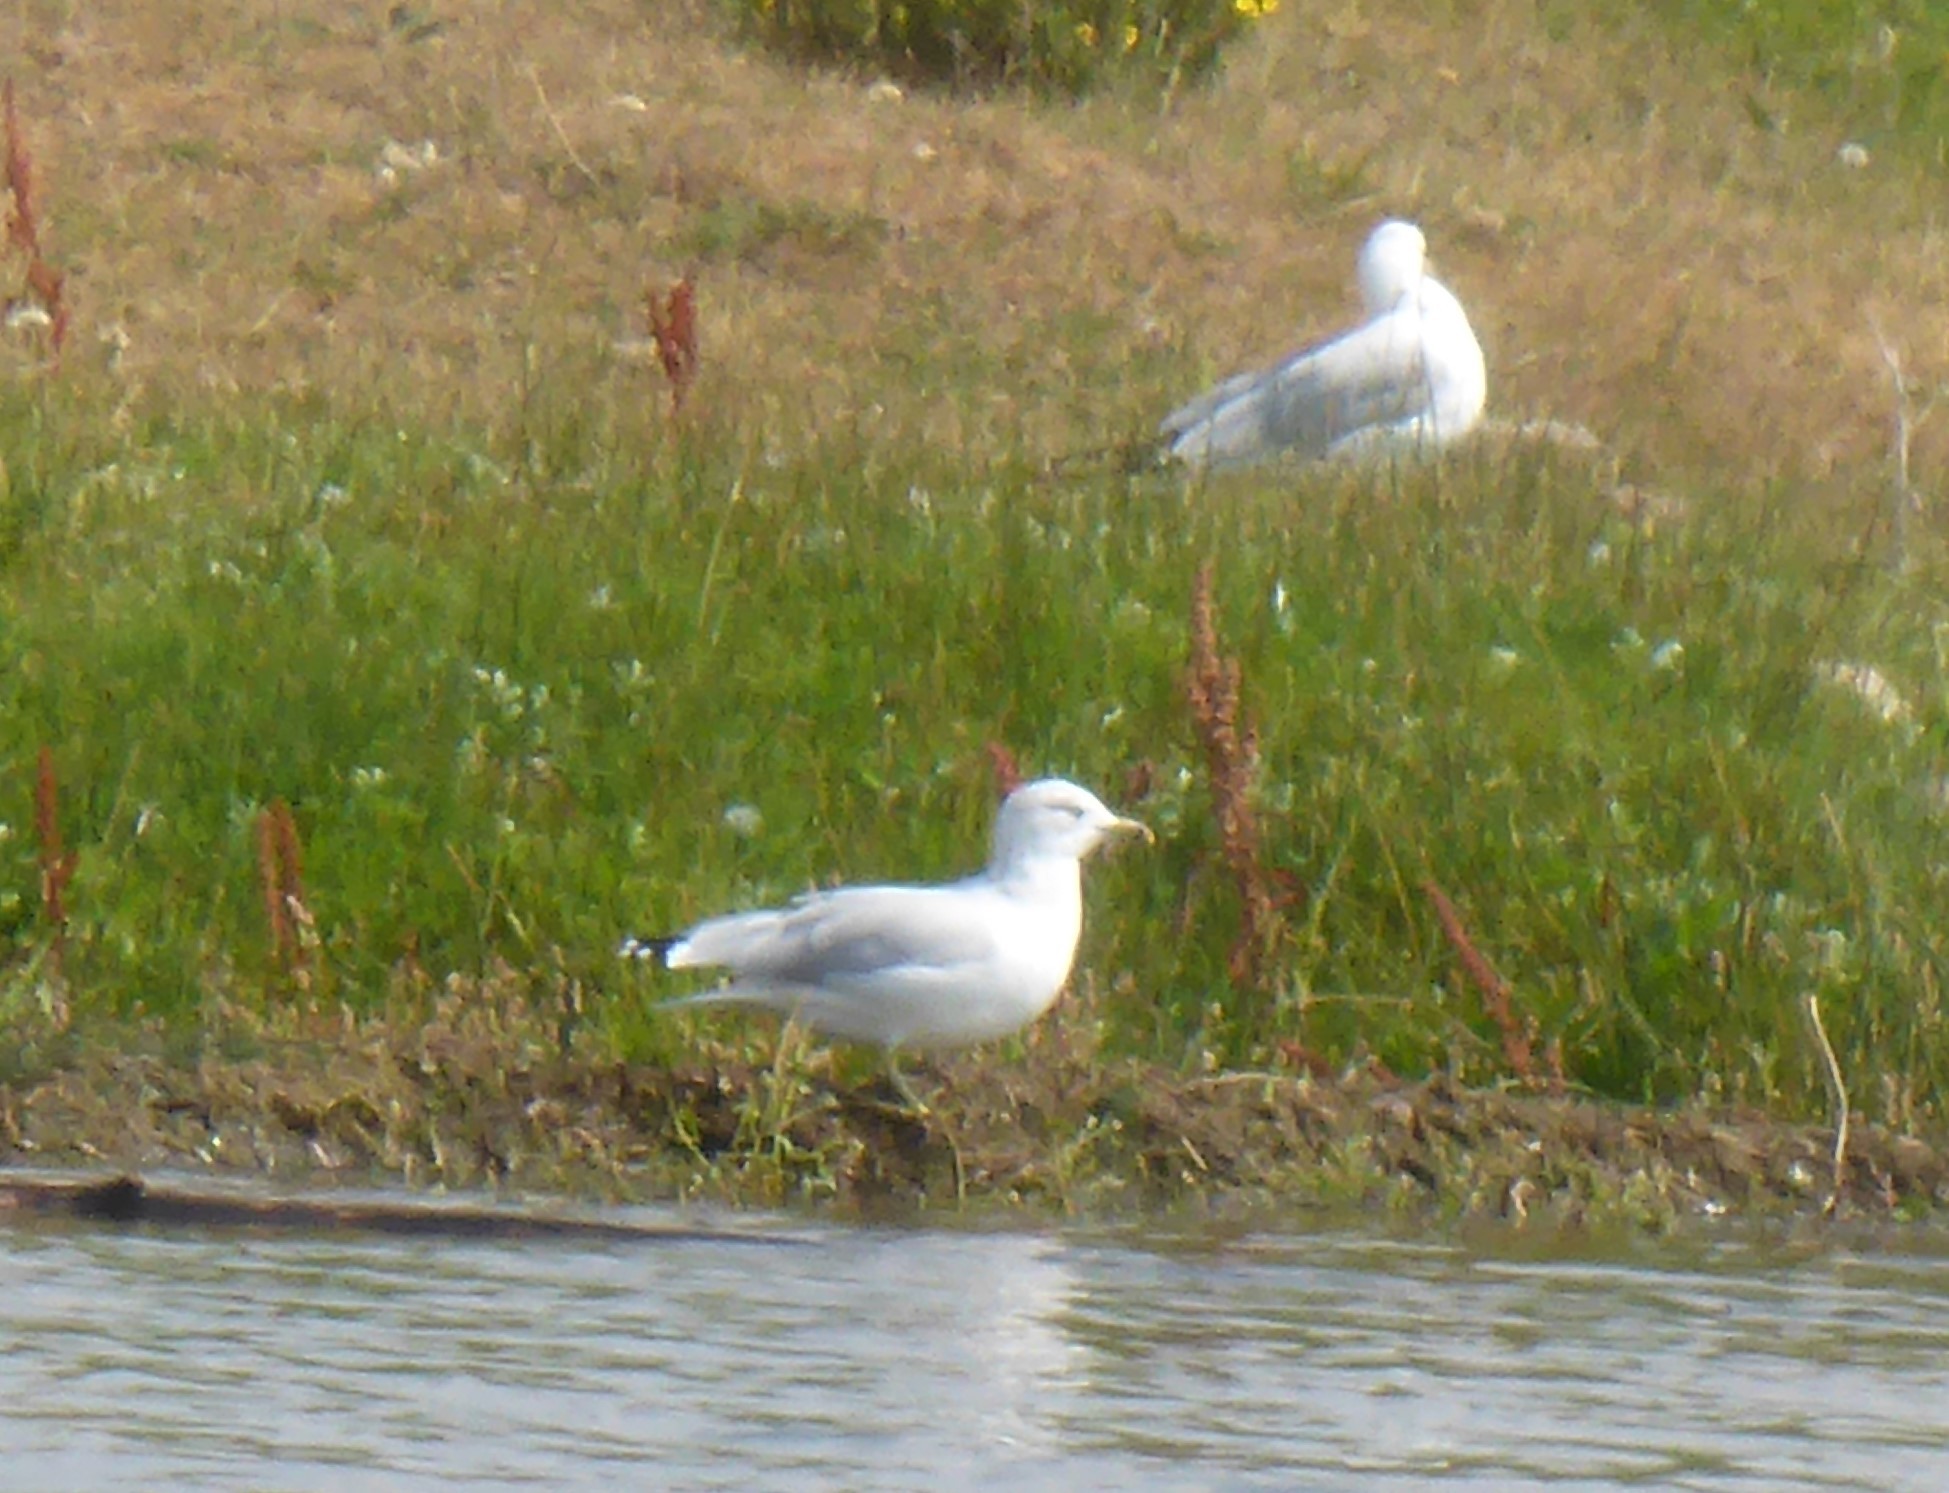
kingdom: Animalia
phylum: Chordata
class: Aves
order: Charadriiformes
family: Laridae
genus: Larus
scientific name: Larus delawarensis
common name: Ring-billed gull
